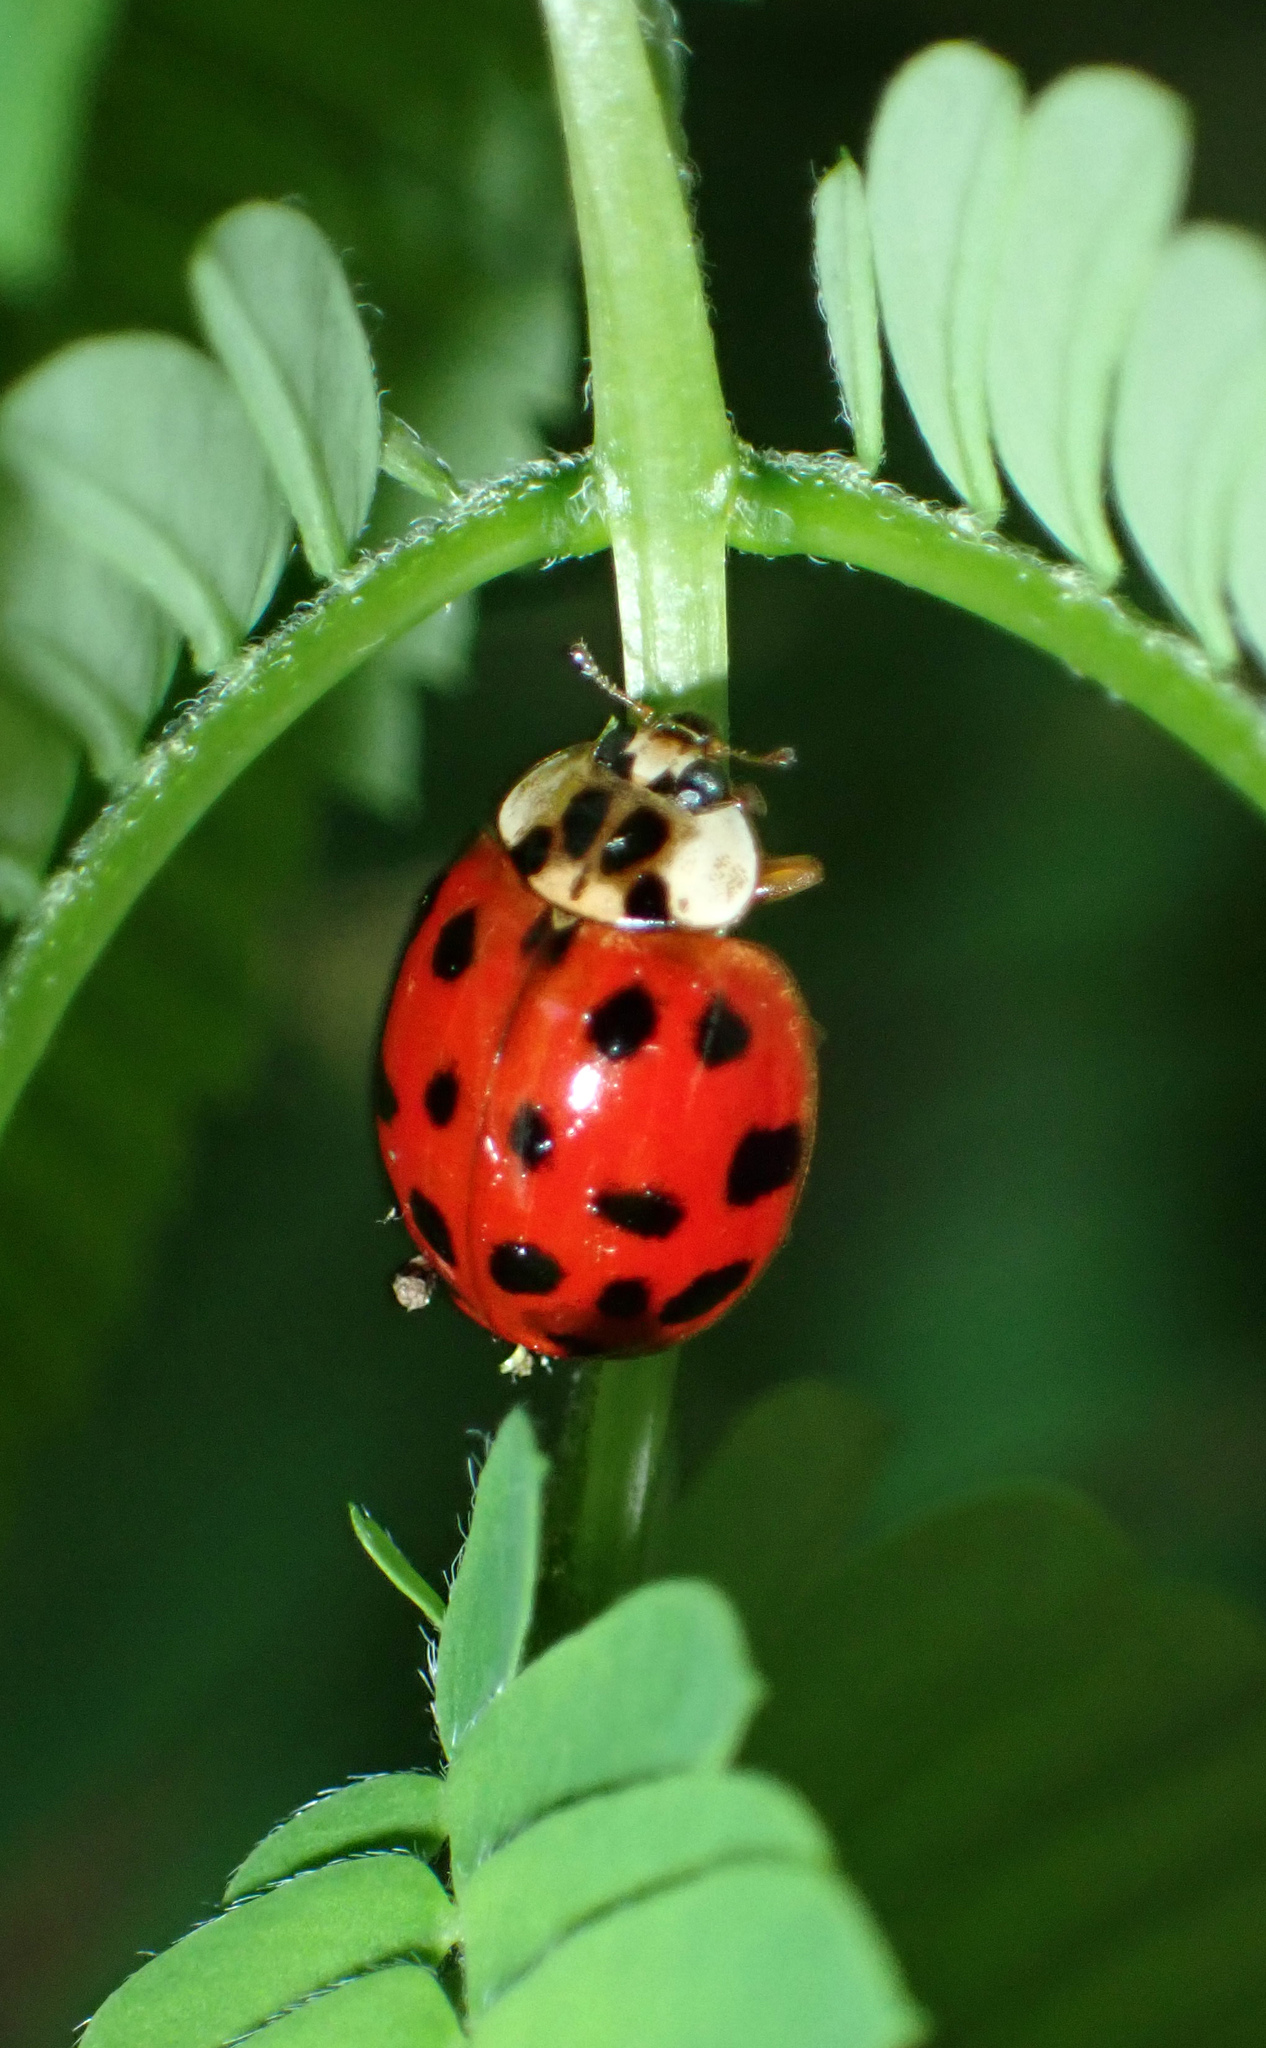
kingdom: Animalia
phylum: Arthropoda
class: Insecta
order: Coleoptera
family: Coccinellidae
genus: Harmonia
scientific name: Harmonia axyridis
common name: Harlequin ladybird
